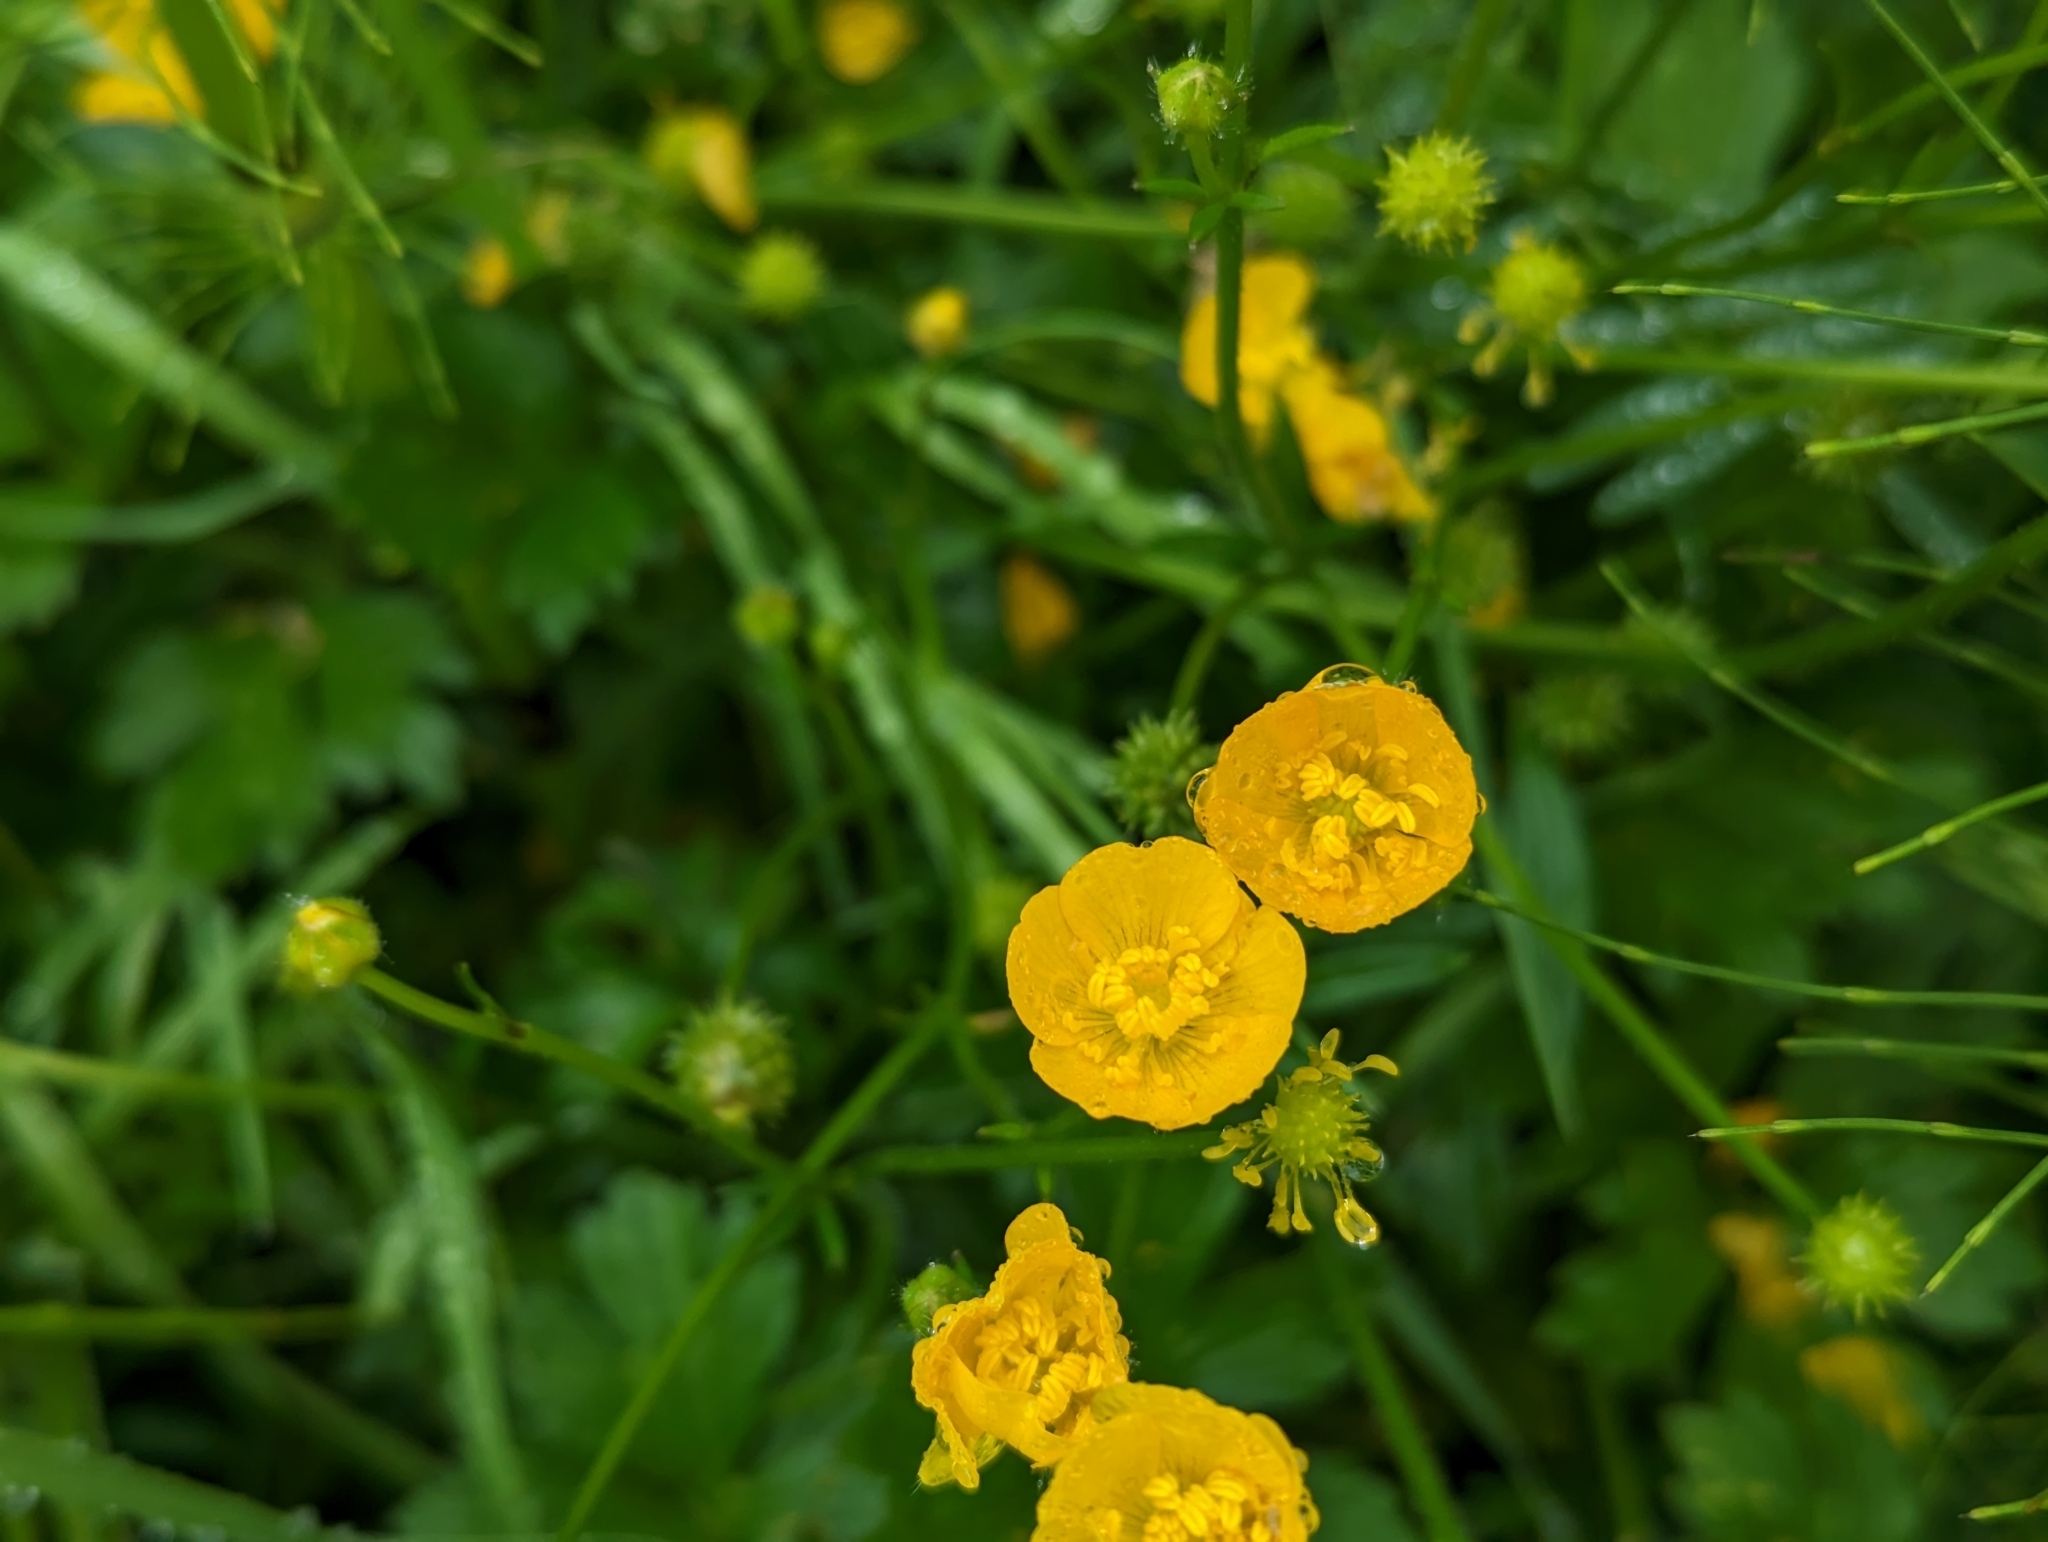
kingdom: Plantae
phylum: Tracheophyta
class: Magnoliopsida
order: Ranunculales
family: Ranunculaceae
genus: Ranunculus
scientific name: Ranunculus repens
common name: Creeping buttercup
